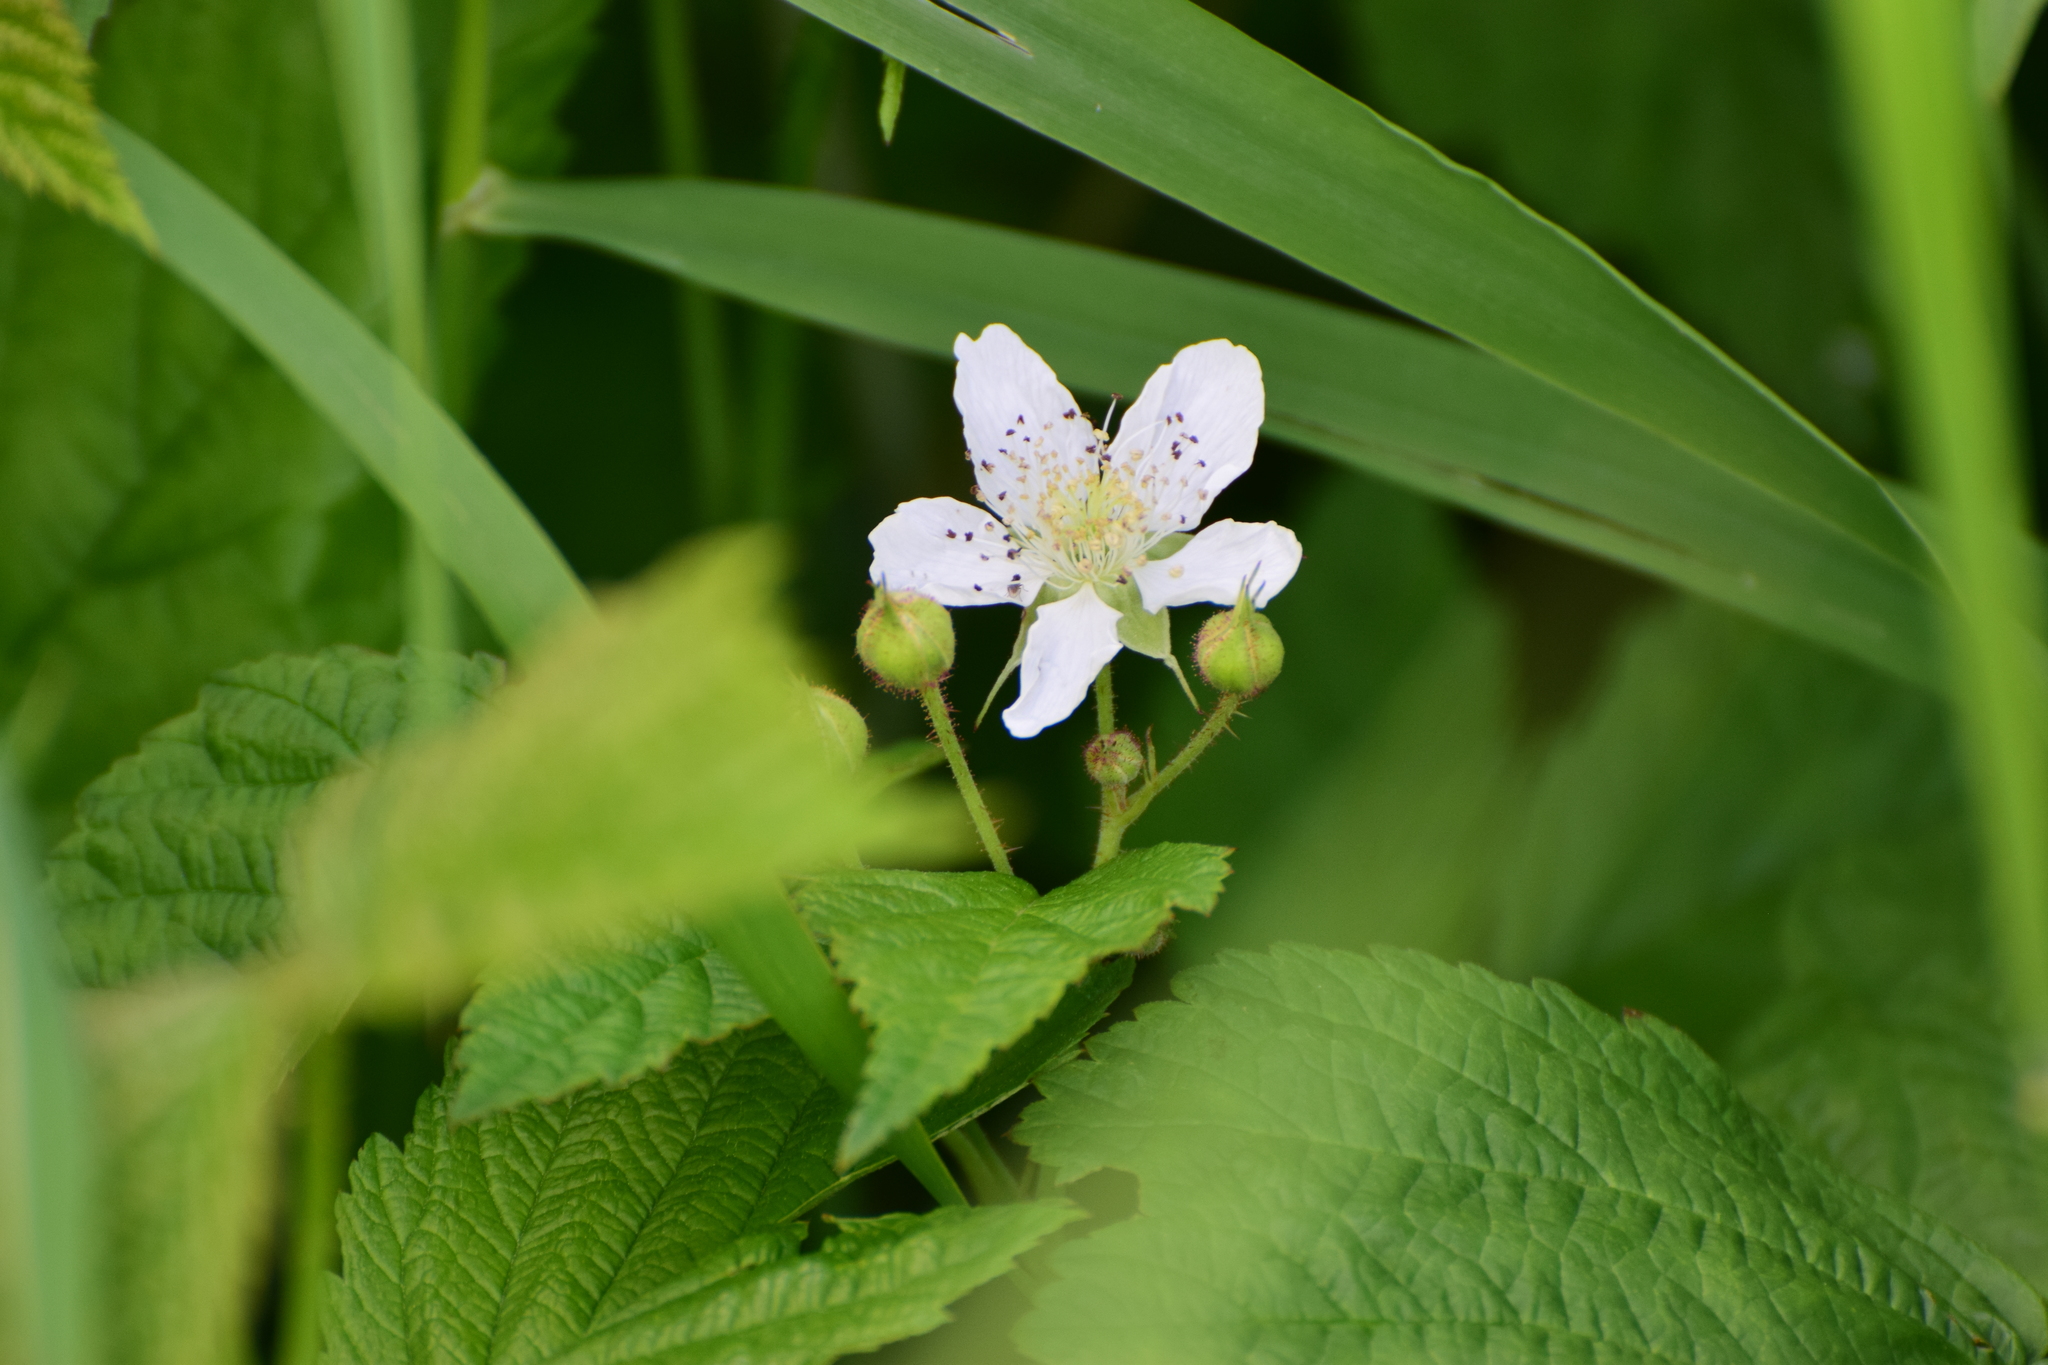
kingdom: Plantae
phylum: Tracheophyta
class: Magnoliopsida
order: Rosales
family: Rosaceae
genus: Rubus
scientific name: Rubus caesius
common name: Dewberry
